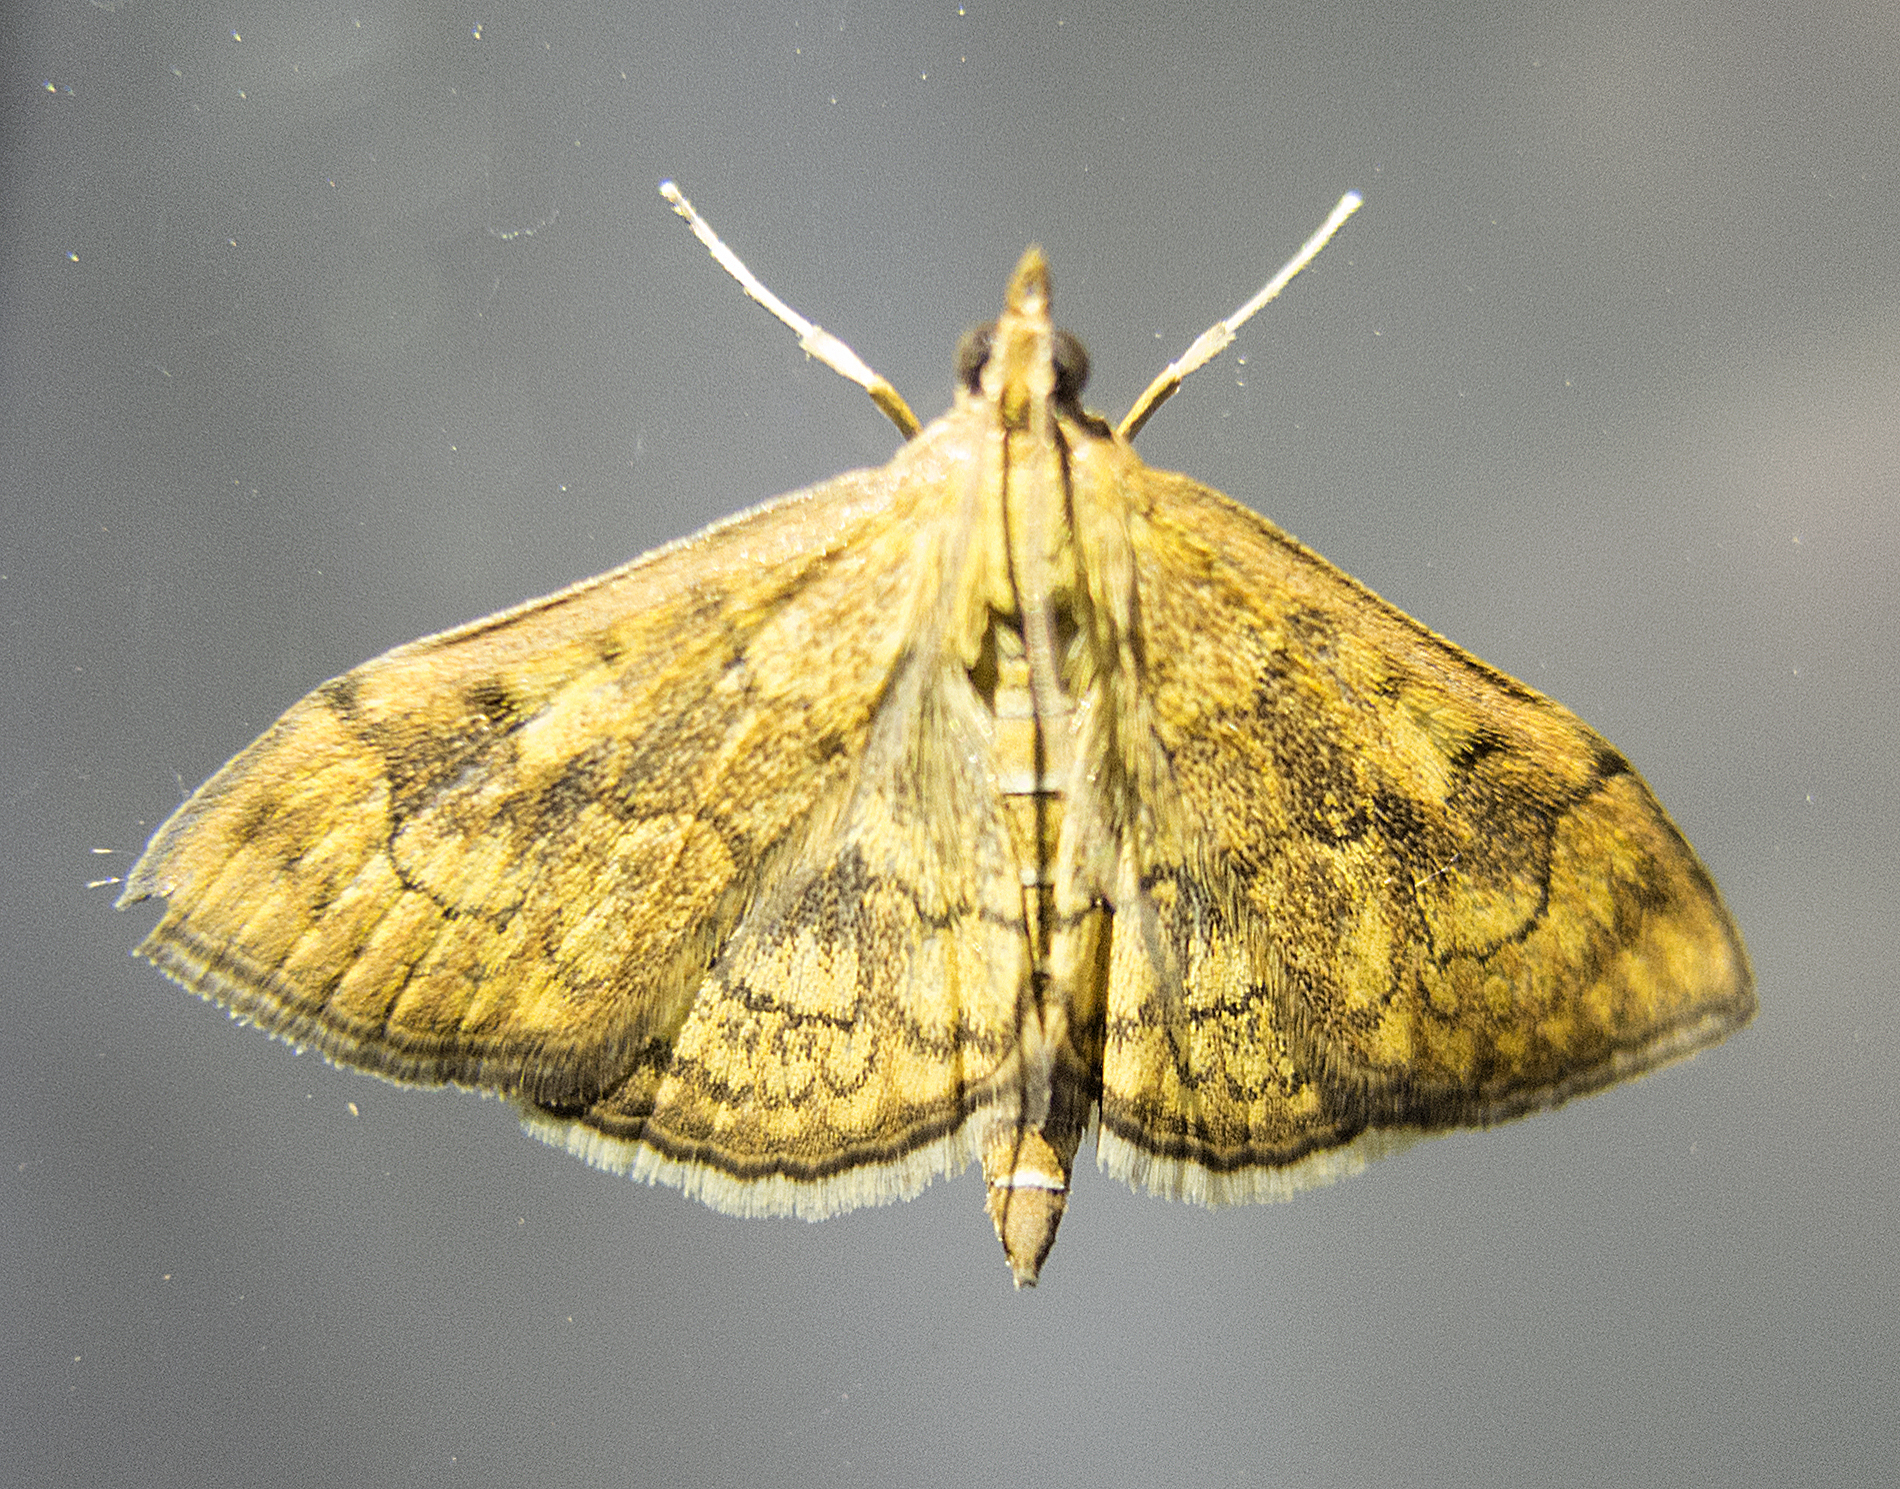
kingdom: Animalia
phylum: Arthropoda
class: Insecta
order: Lepidoptera
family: Crambidae
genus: Anania
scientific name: Anania verbascalis
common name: Golden pearl
